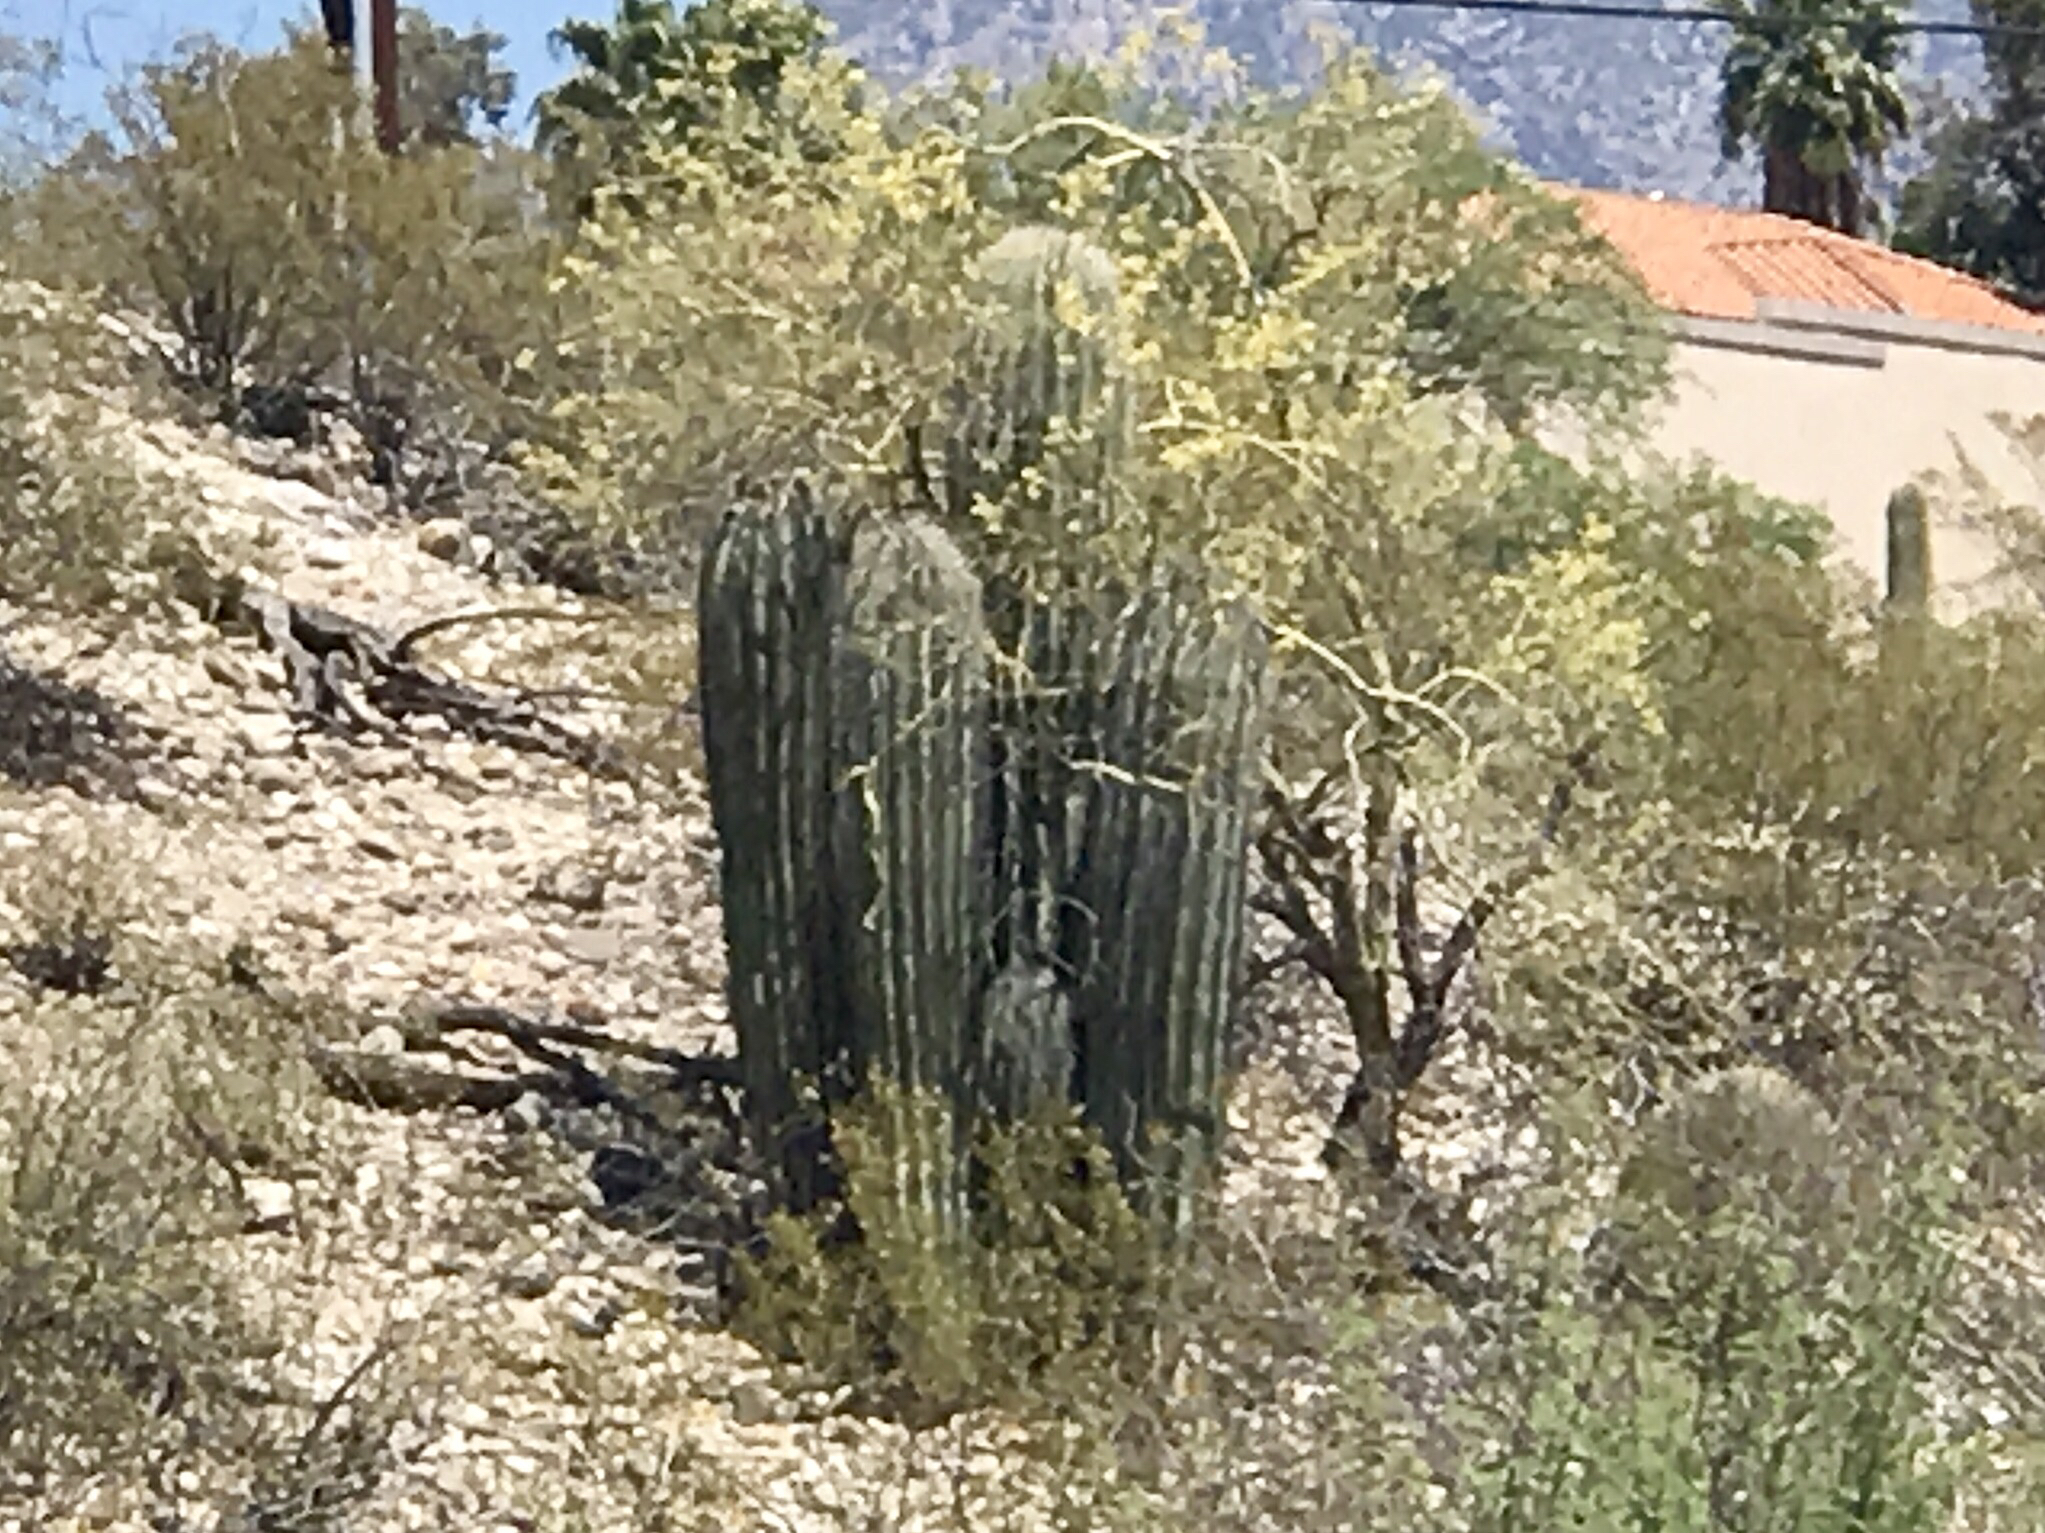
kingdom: Plantae
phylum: Tracheophyta
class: Magnoliopsida
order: Caryophyllales
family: Cactaceae
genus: Carnegiea
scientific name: Carnegiea gigantea
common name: Saguaro
